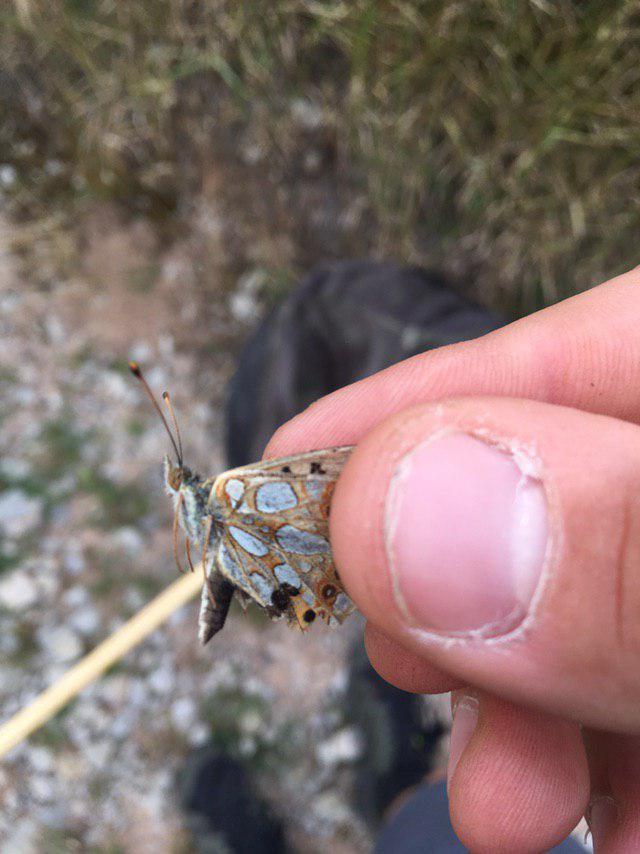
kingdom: Animalia
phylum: Arthropoda
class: Insecta
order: Lepidoptera
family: Nymphalidae
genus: Issoria
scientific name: Issoria lathonia
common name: Queen of spain fritillary
